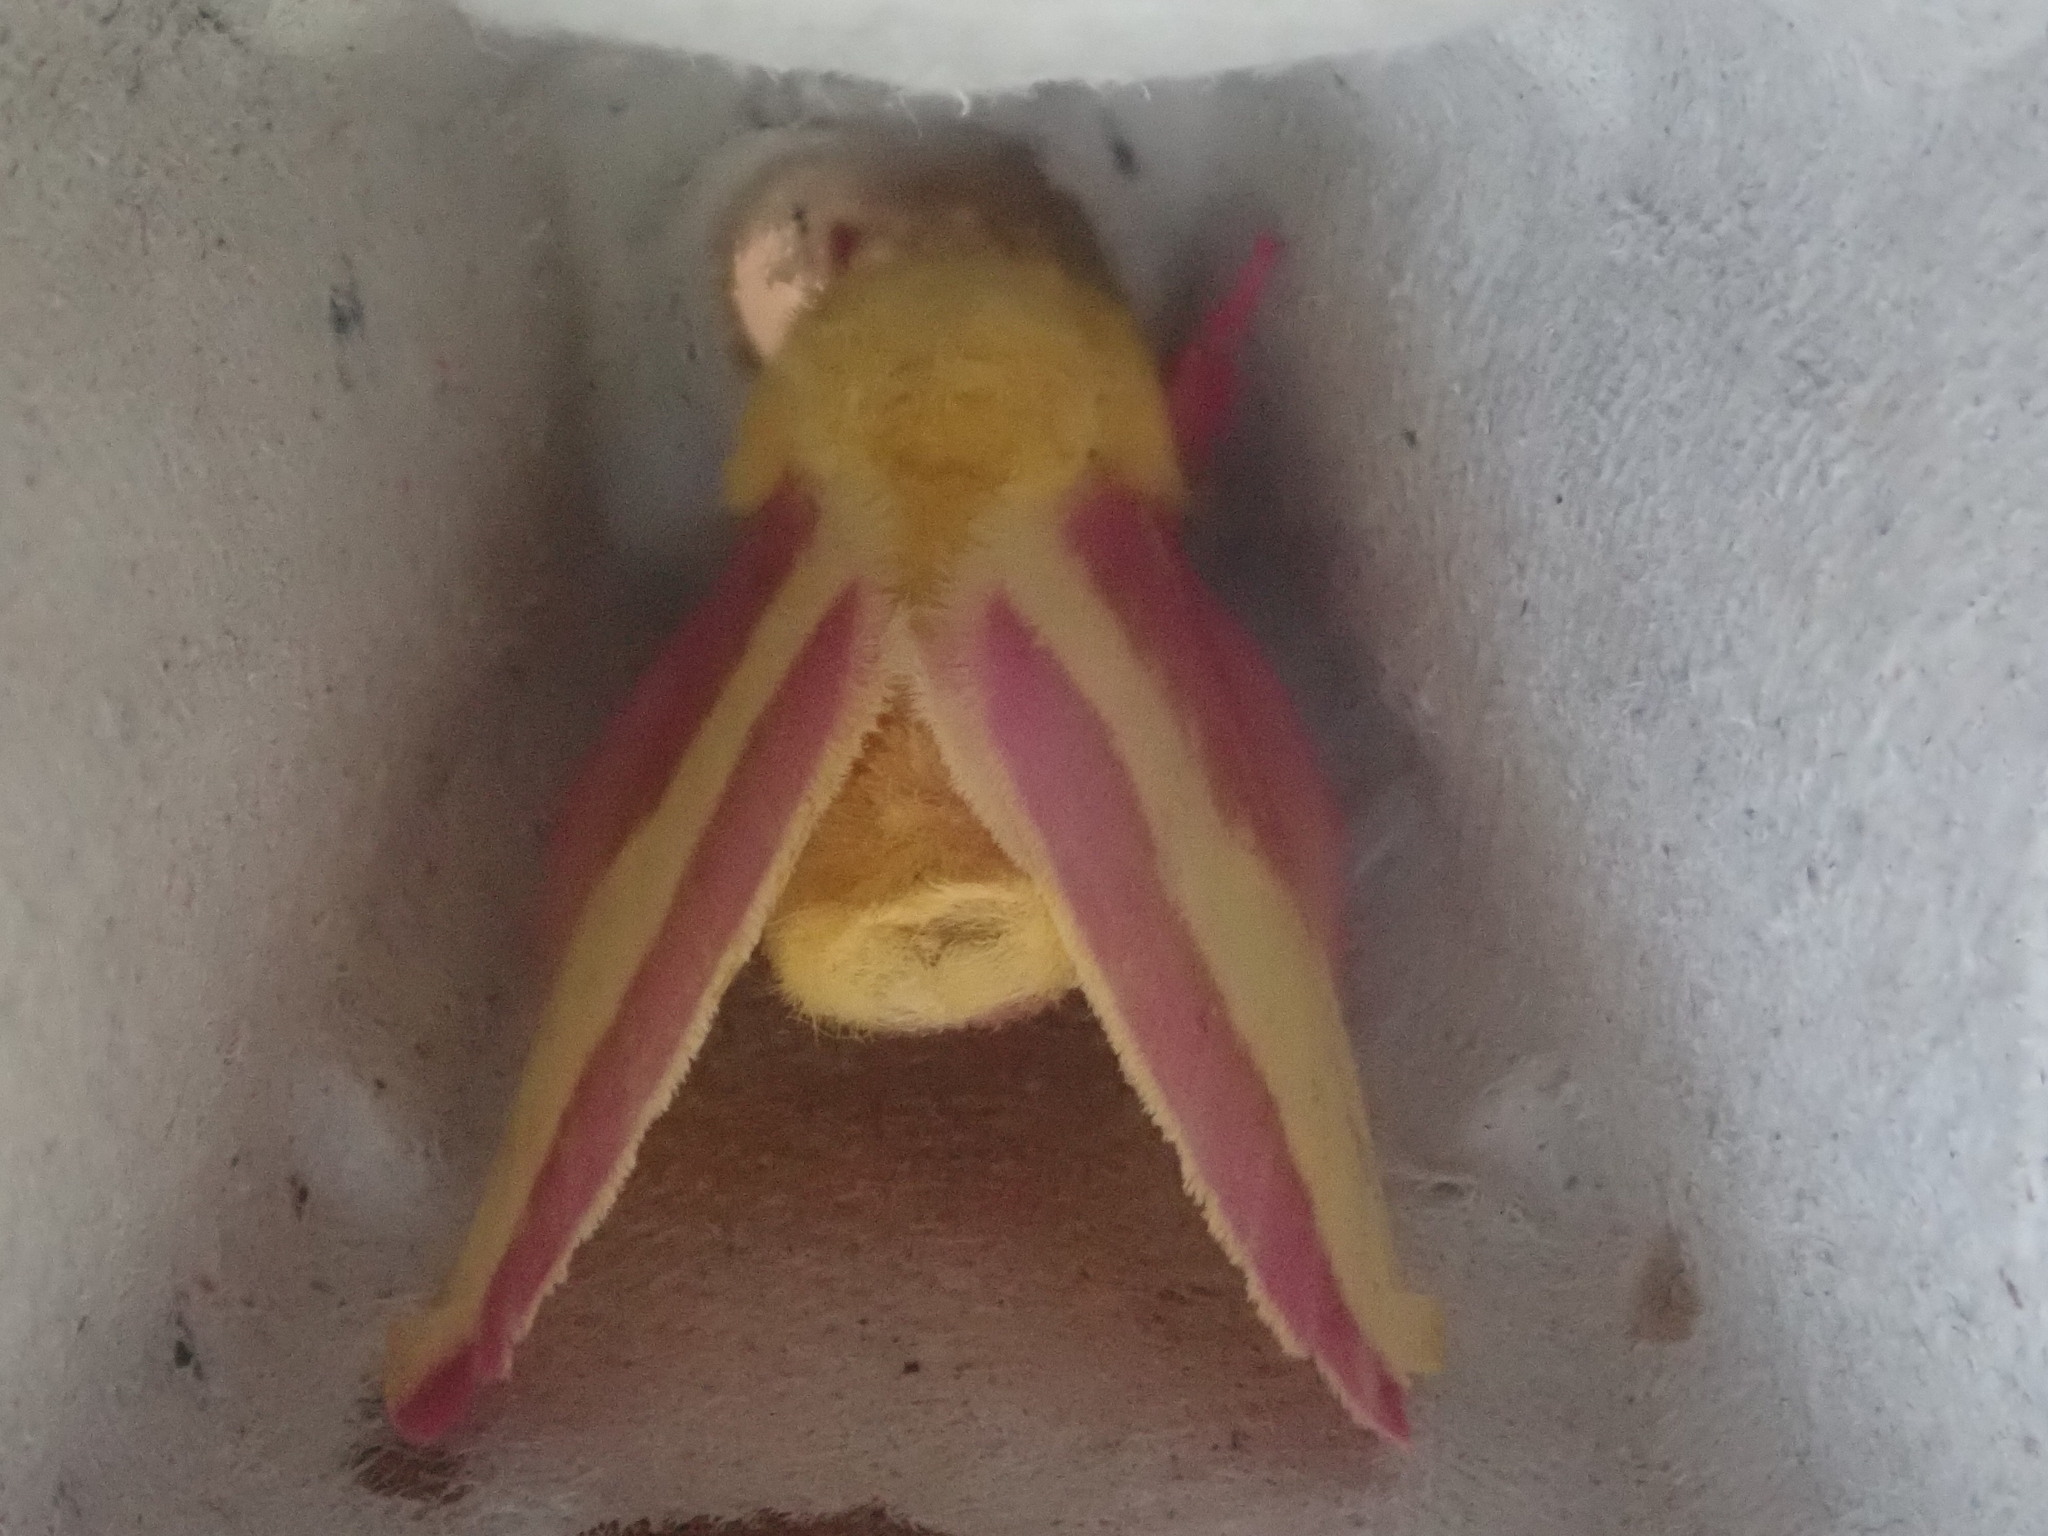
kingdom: Animalia
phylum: Arthropoda
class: Insecta
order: Lepidoptera
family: Saturniidae
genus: Dryocampa
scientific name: Dryocampa rubicunda
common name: Rosy maple moth
